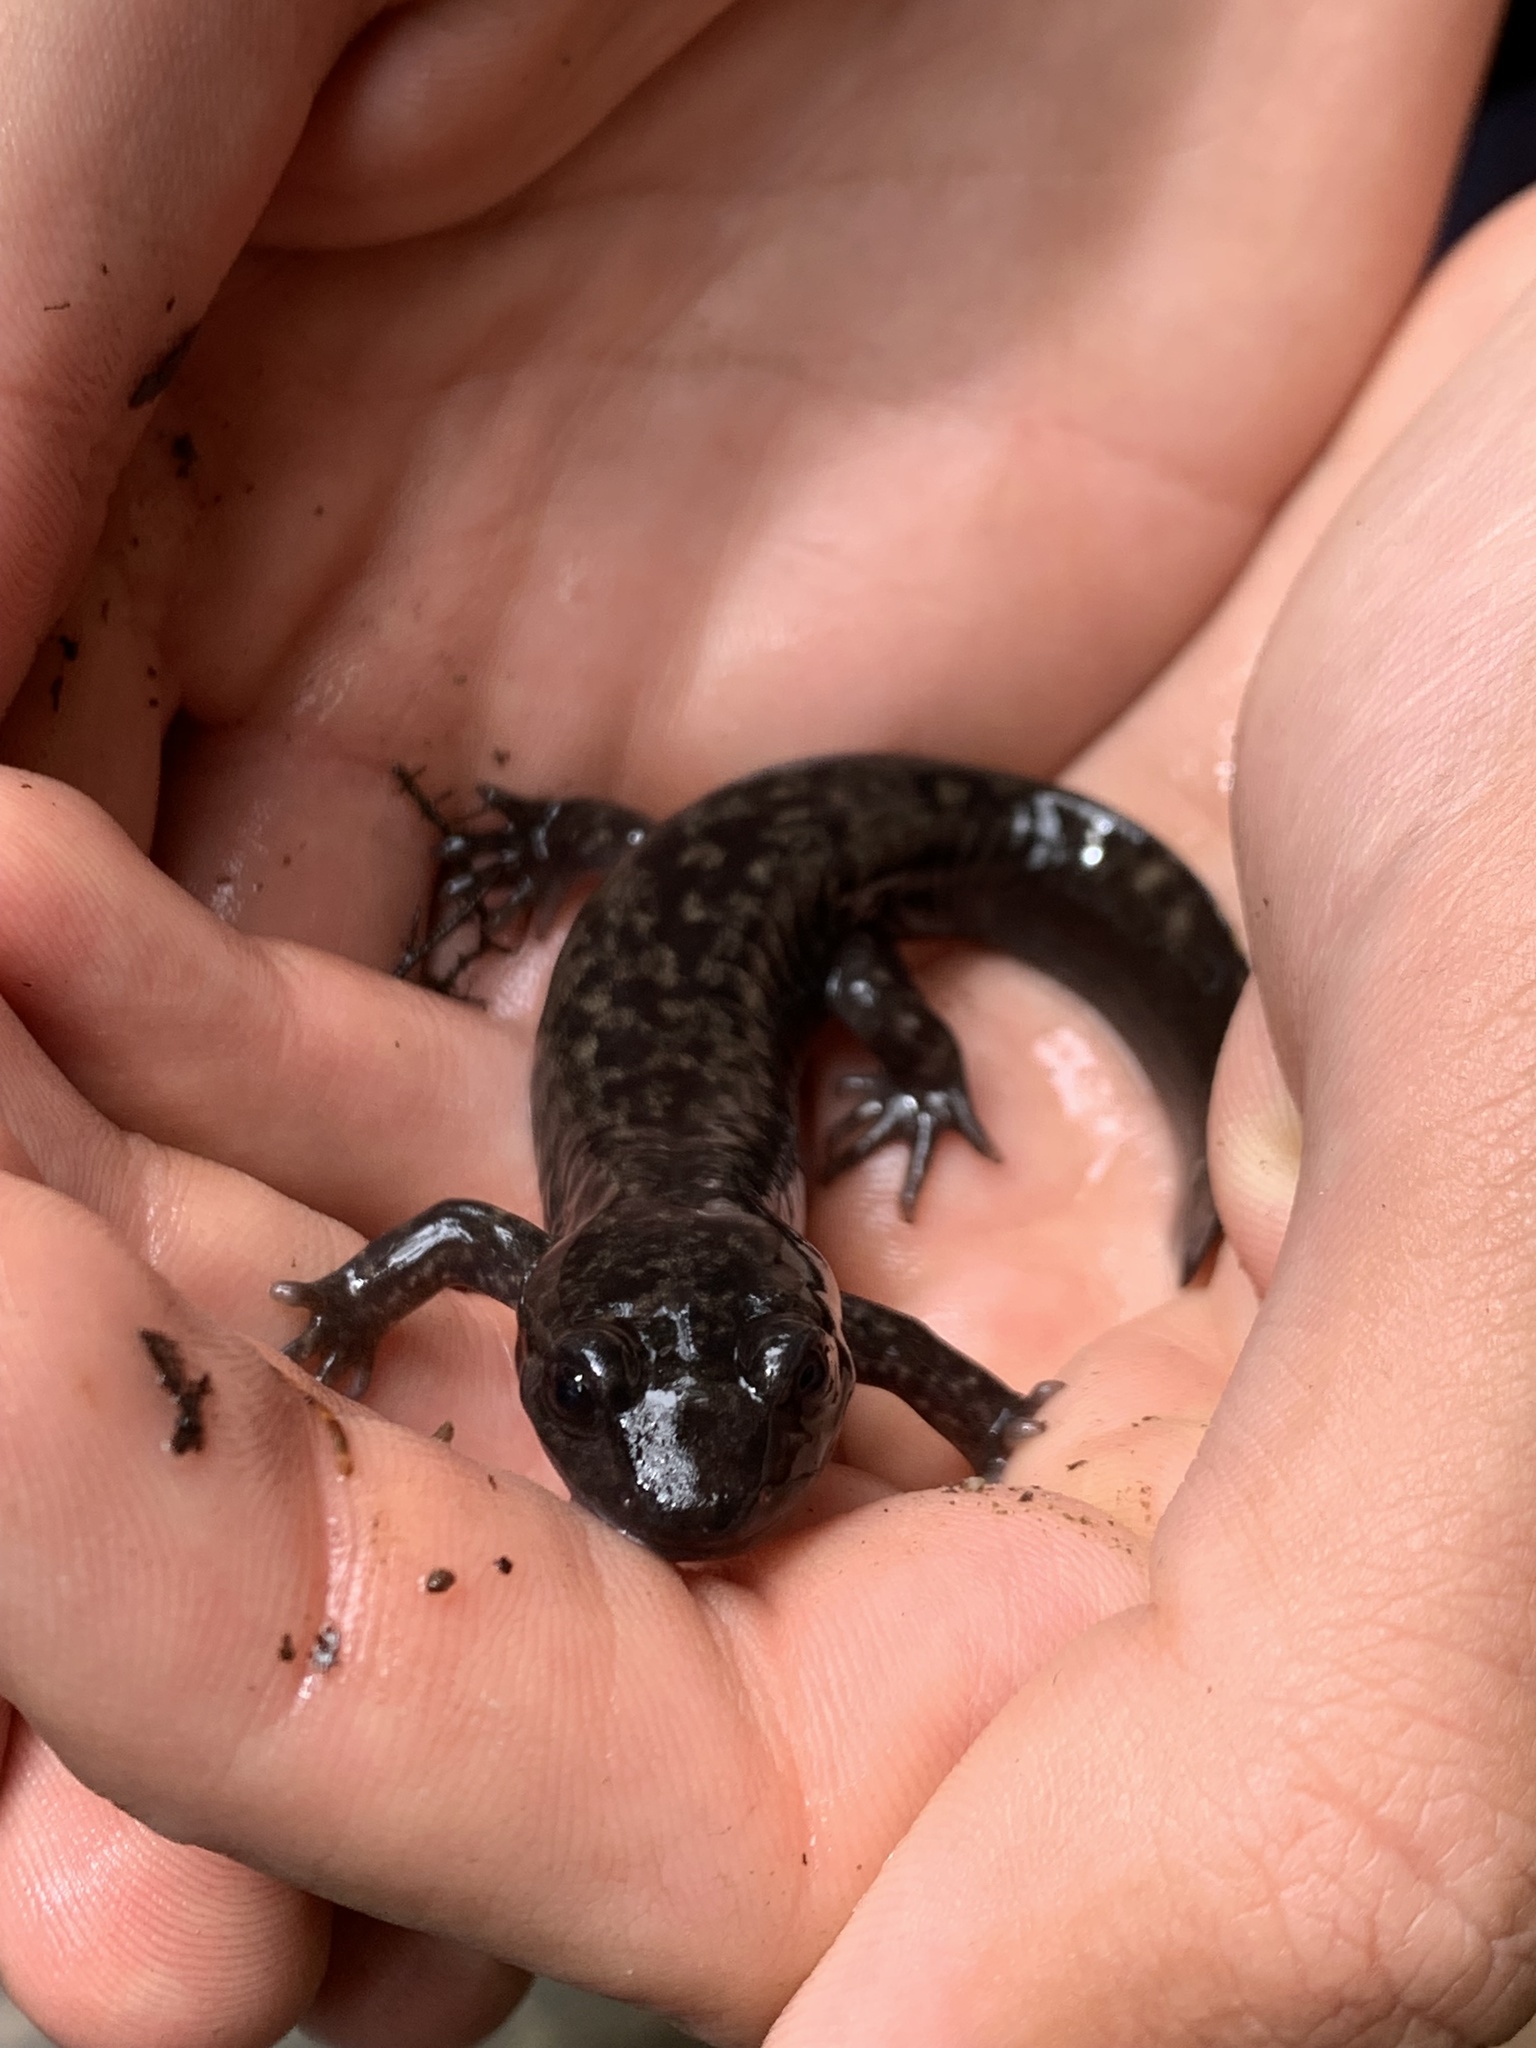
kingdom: Animalia
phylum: Chordata
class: Amphibia
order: Caudata
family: Ambystomatidae
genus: Dicamptodon
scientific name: Dicamptodon tenebrosus
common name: Coastal giant salamander
